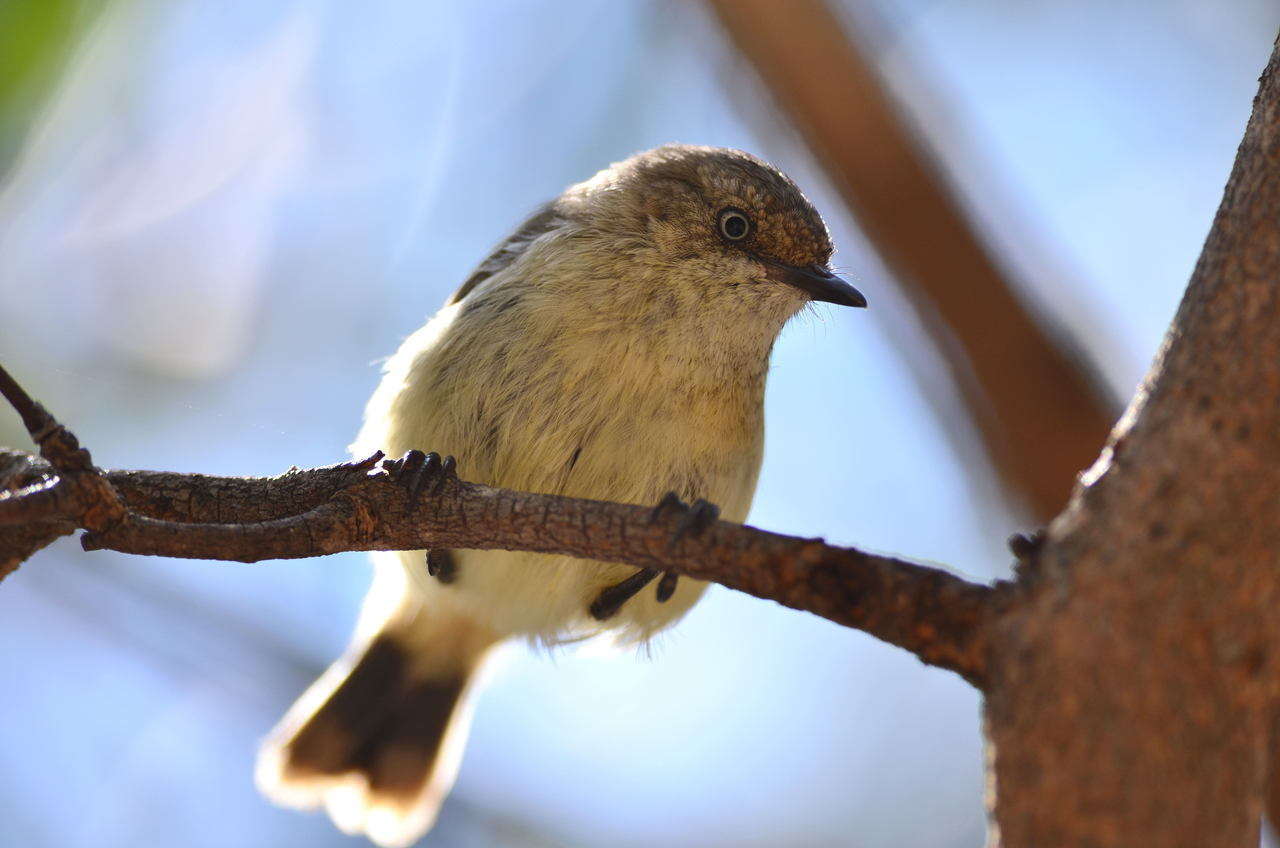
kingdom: Animalia
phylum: Chordata
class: Aves
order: Passeriformes
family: Acanthizidae
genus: Acanthiza
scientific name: Acanthiza reguloides
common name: Buff-rumped thornbill
